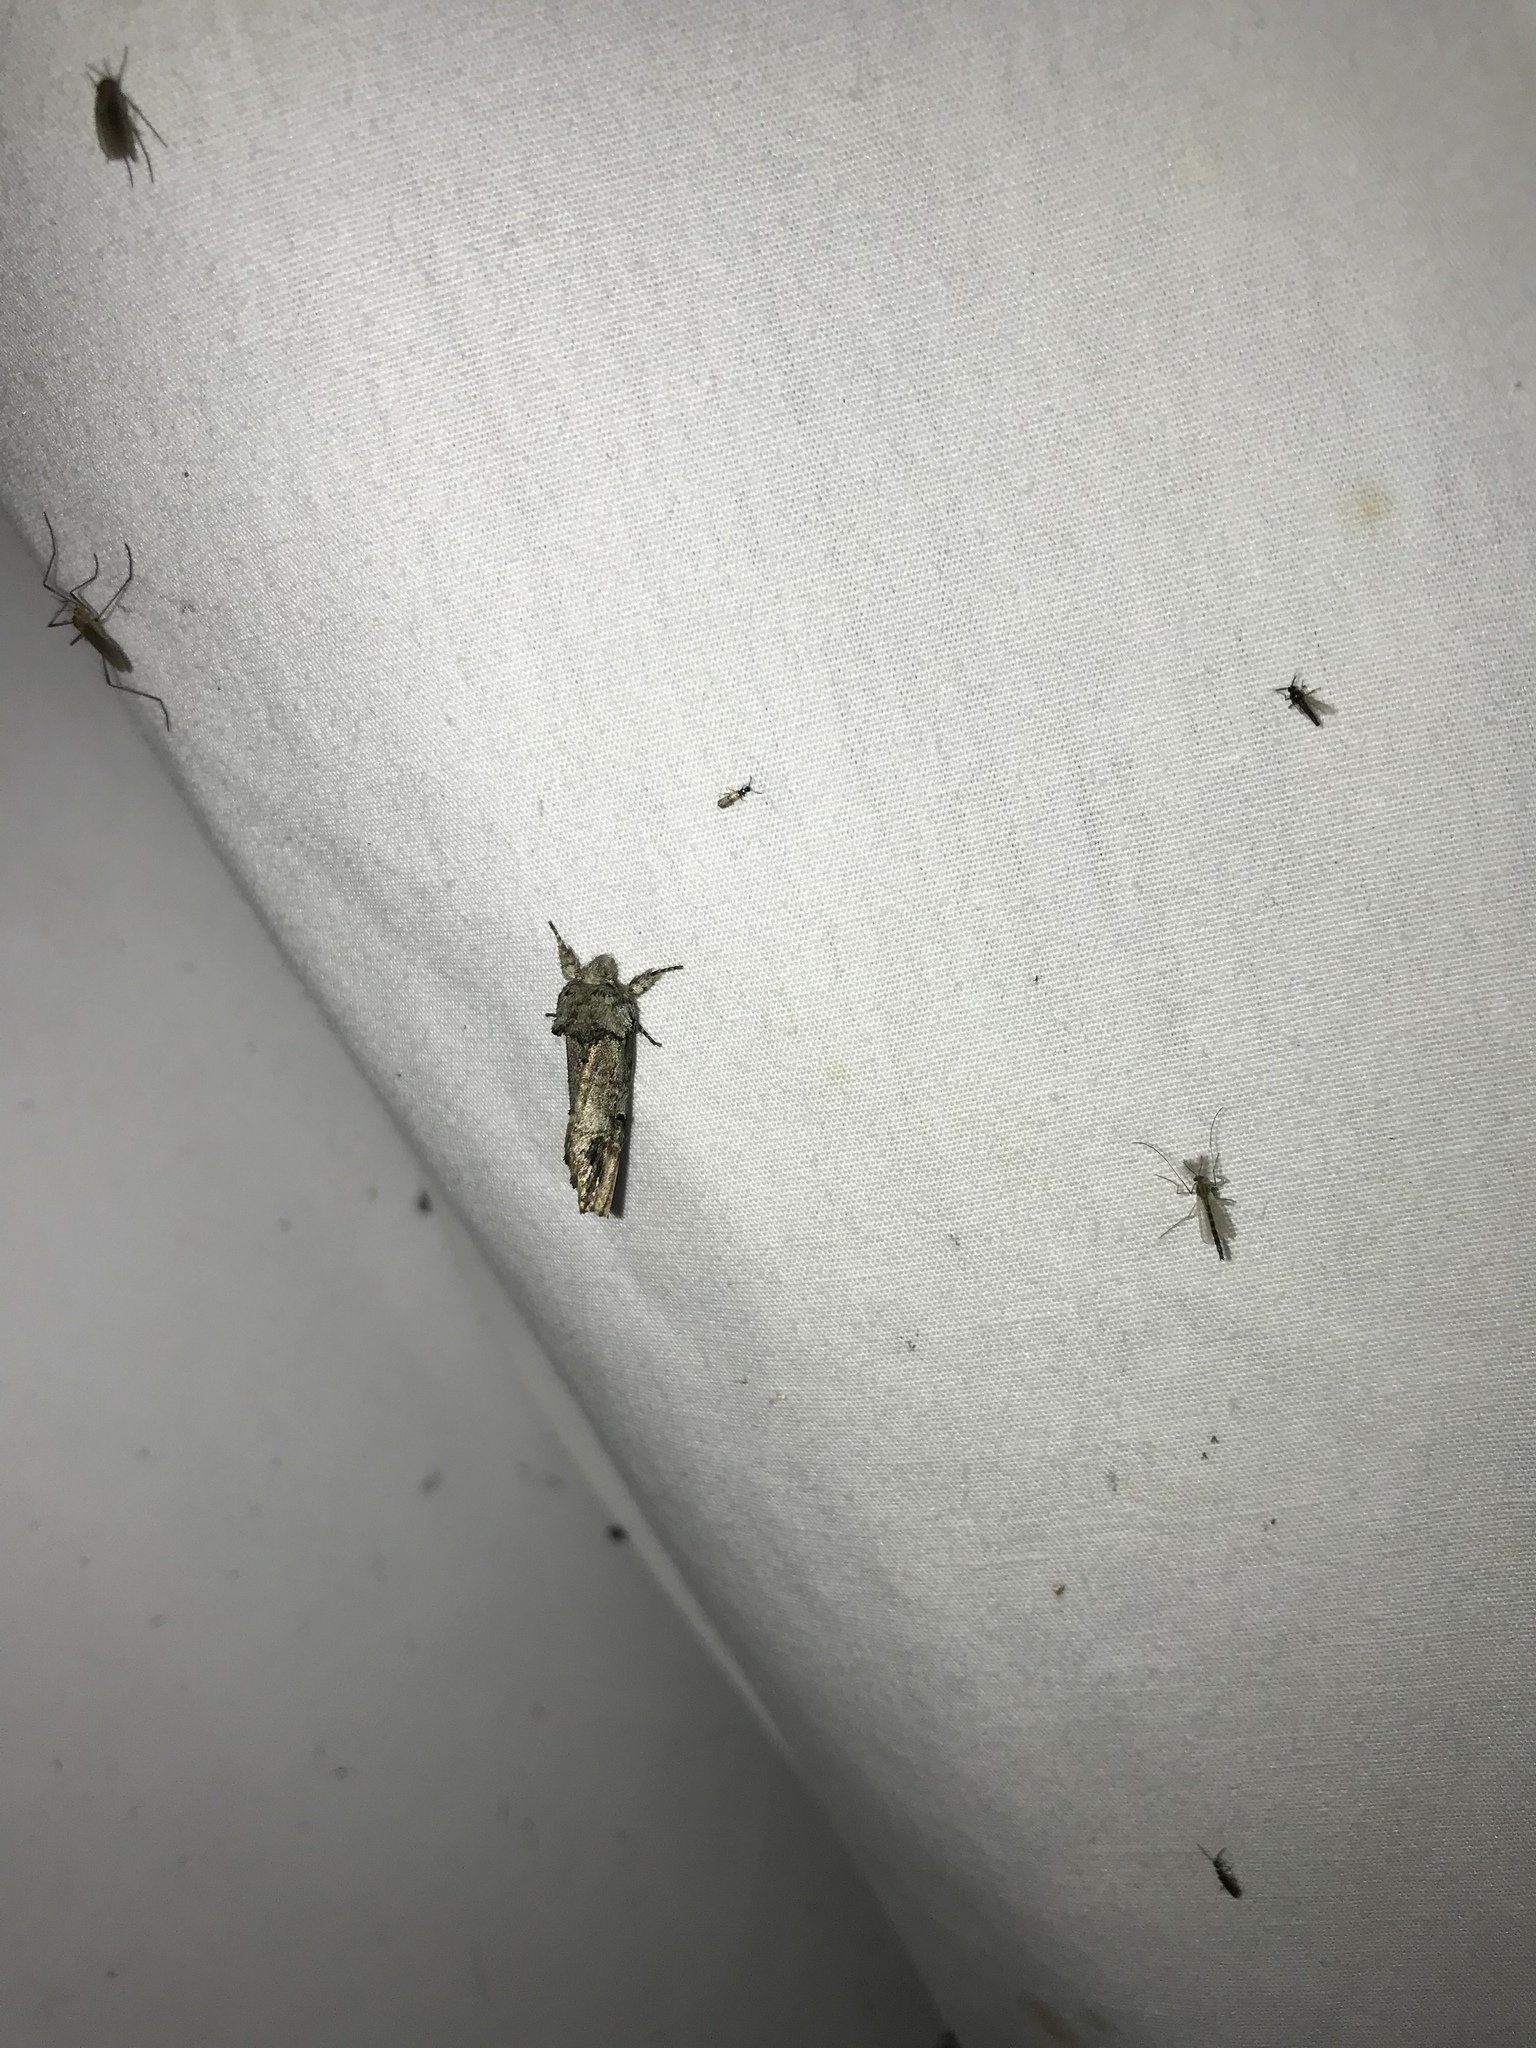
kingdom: Animalia
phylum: Arthropoda
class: Insecta
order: Lepidoptera
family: Notodontidae
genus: Schizura
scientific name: Schizura
